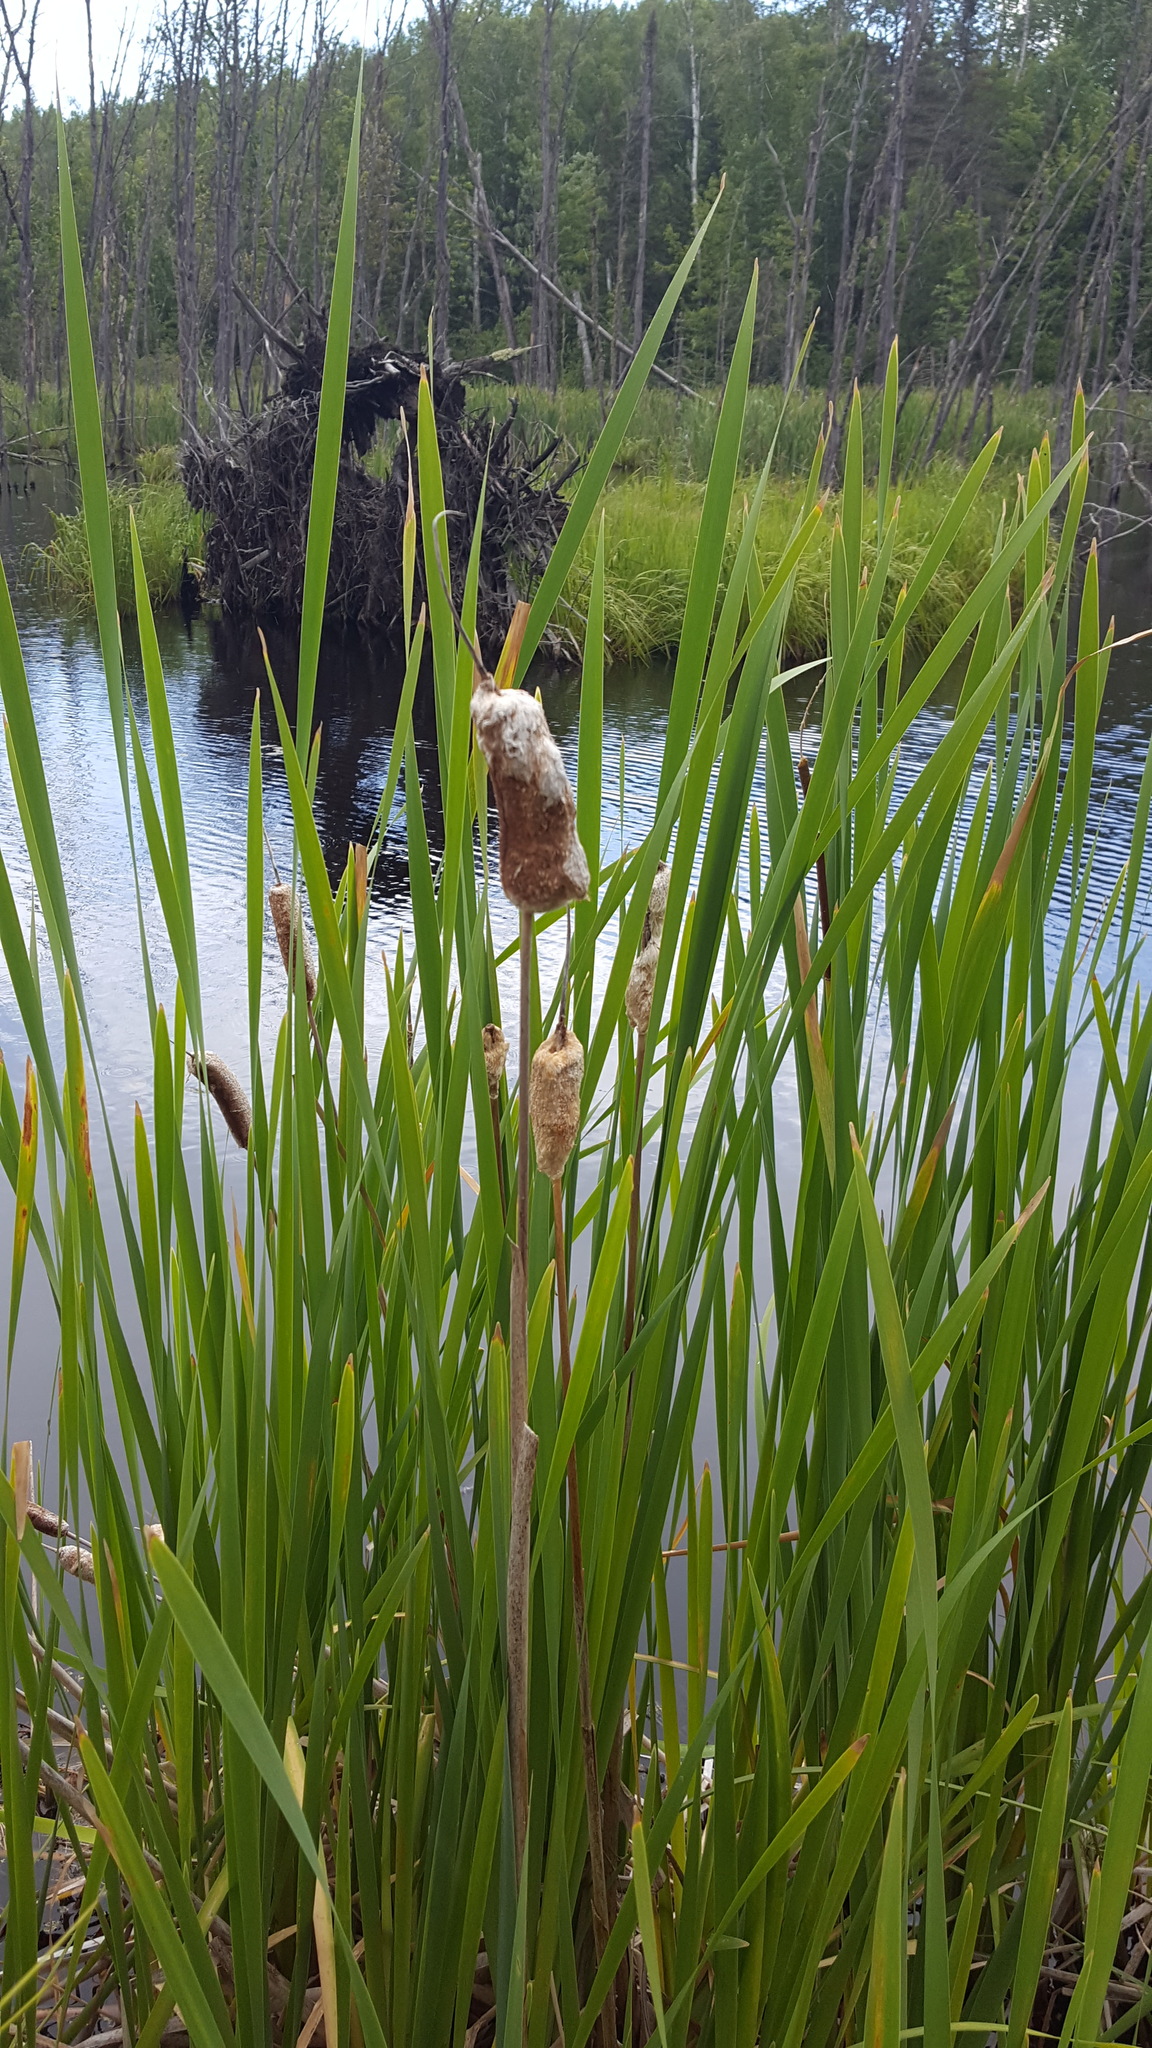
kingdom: Plantae
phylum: Tracheophyta
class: Liliopsida
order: Poales
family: Typhaceae
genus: Typha
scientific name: Typha angustifolia
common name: Lesser bulrush
